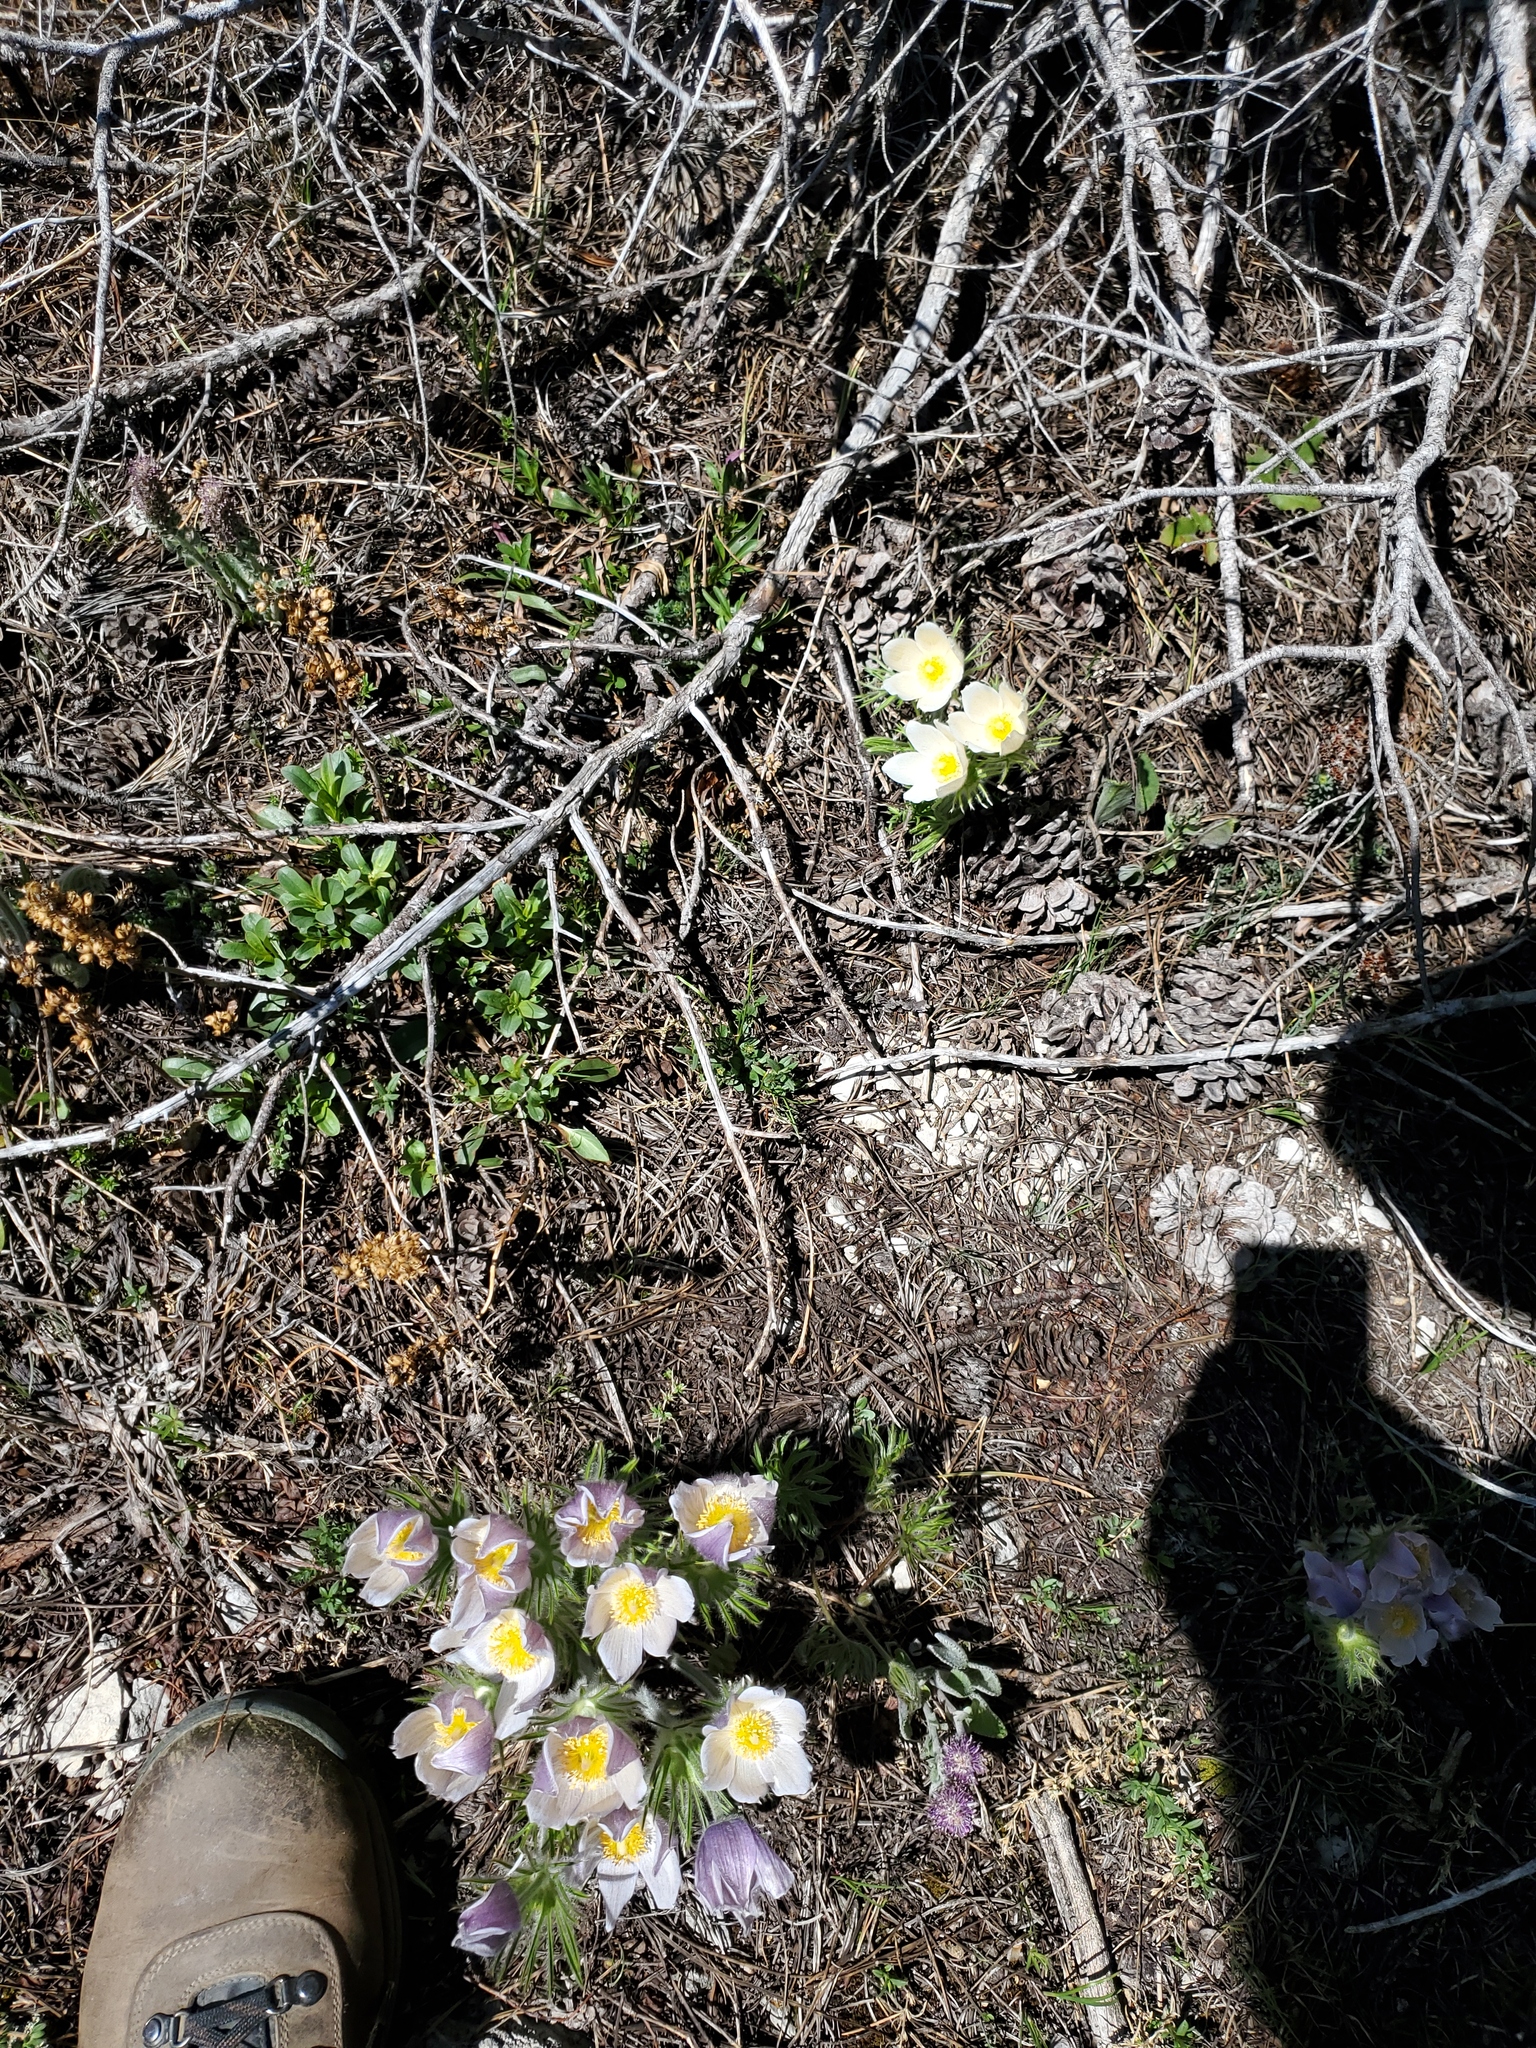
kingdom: Plantae
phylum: Tracheophyta
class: Magnoliopsida
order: Ranunculales
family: Ranunculaceae
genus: Pulsatilla
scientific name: Pulsatilla nuttalliana
